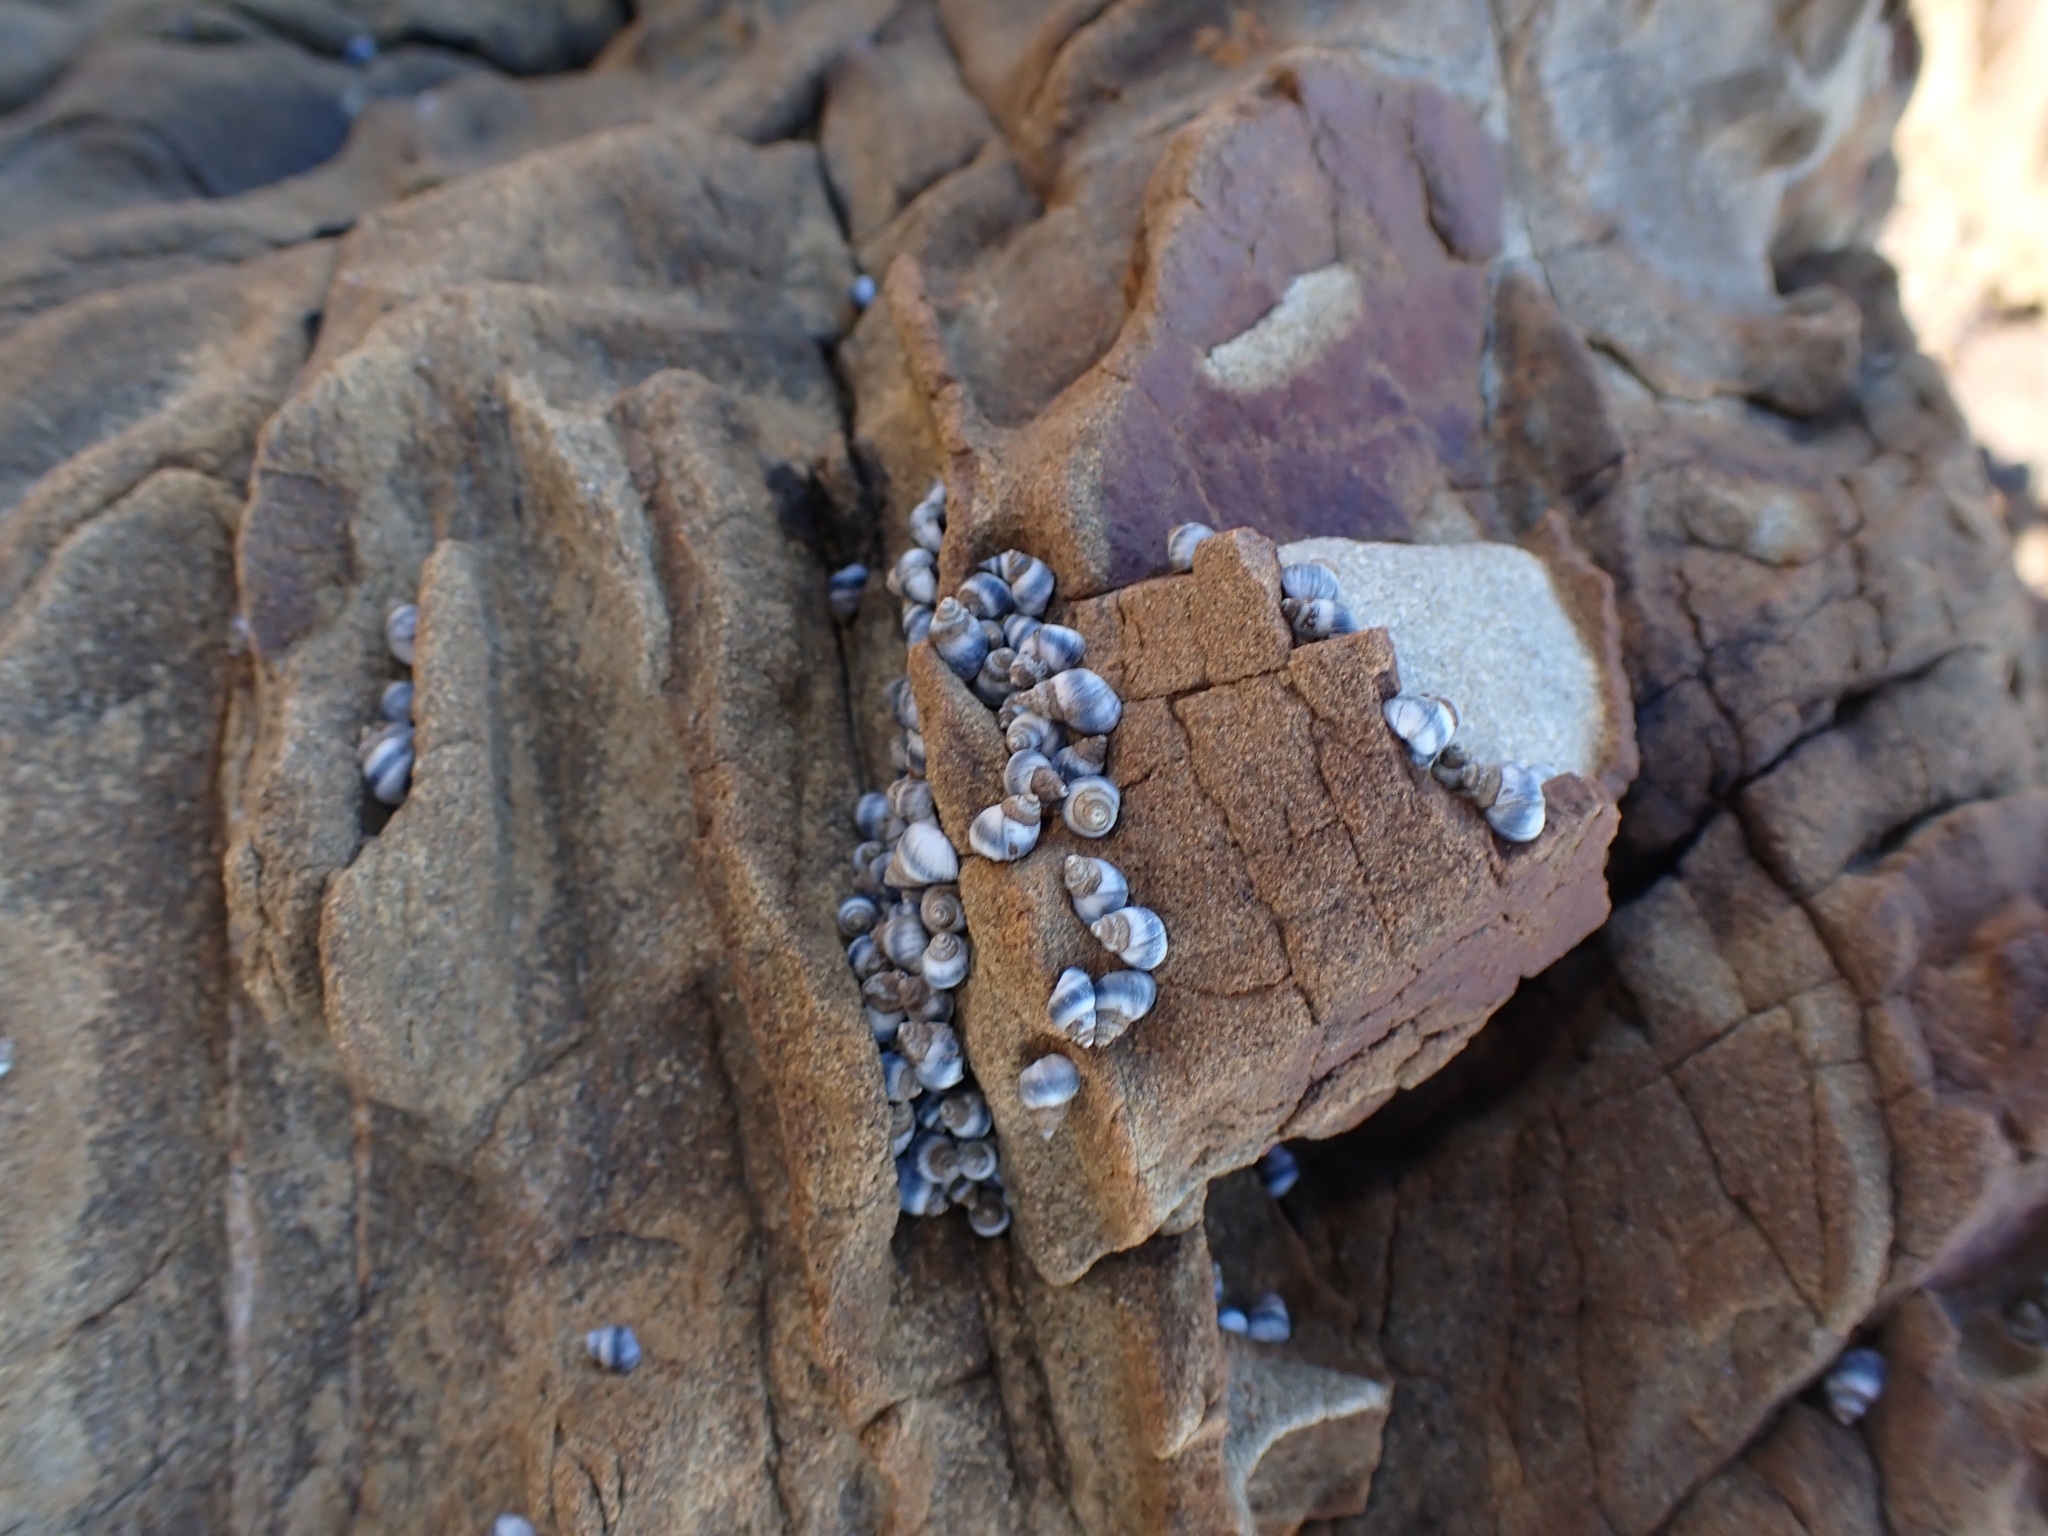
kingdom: Animalia
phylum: Mollusca
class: Gastropoda
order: Littorinimorpha
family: Littorinidae
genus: Austrolittorina
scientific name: Austrolittorina antipodum
